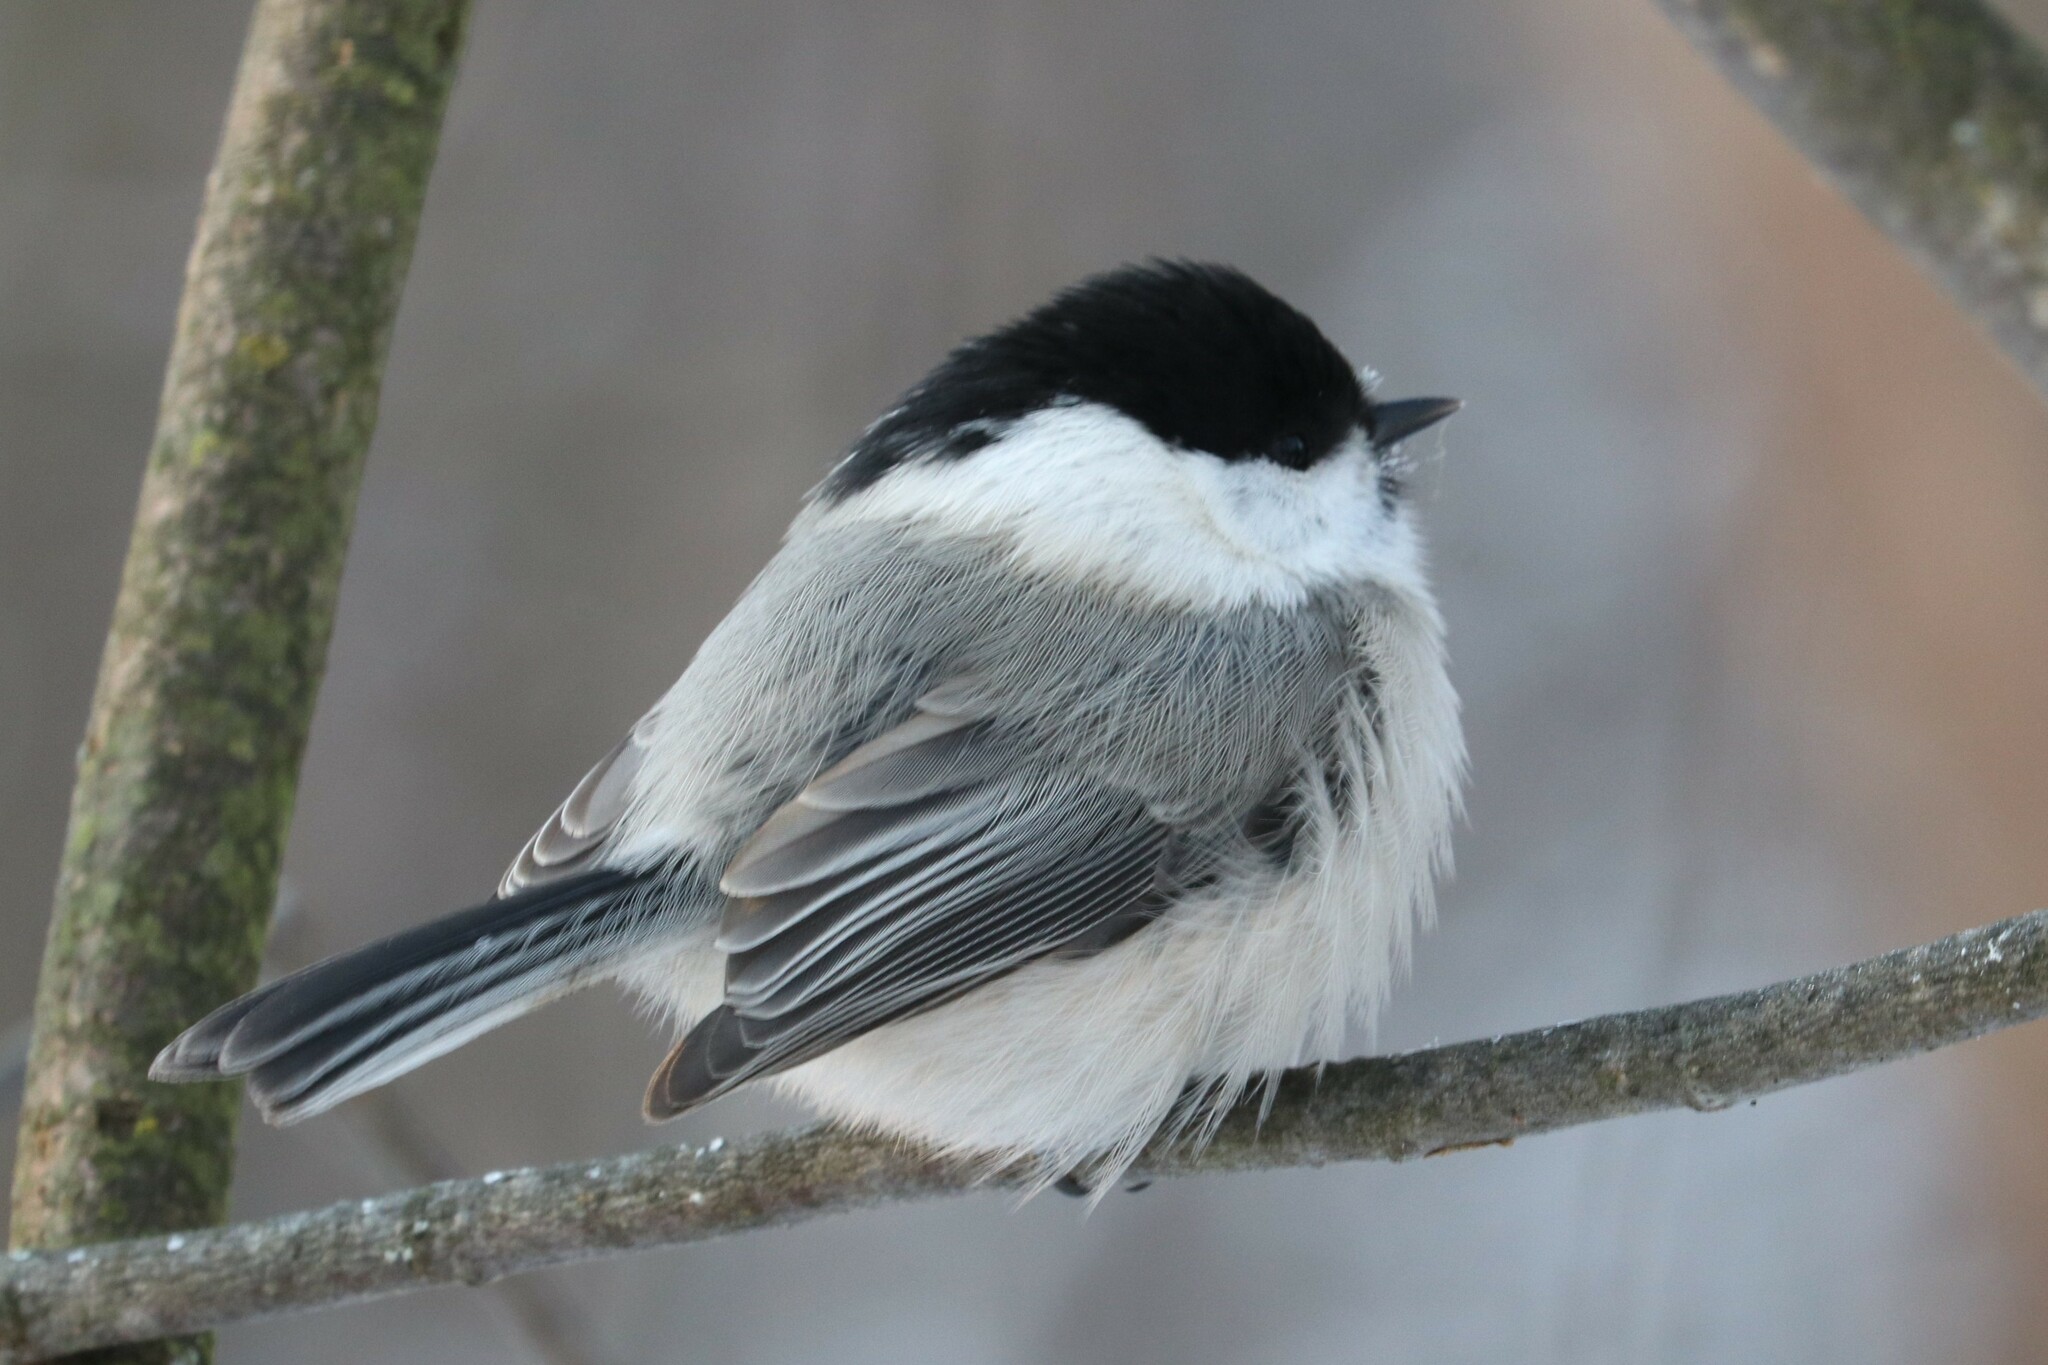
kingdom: Animalia
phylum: Chordata
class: Aves
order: Passeriformes
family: Paridae
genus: Poecile
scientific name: Poecile montanus
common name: Willow tit
